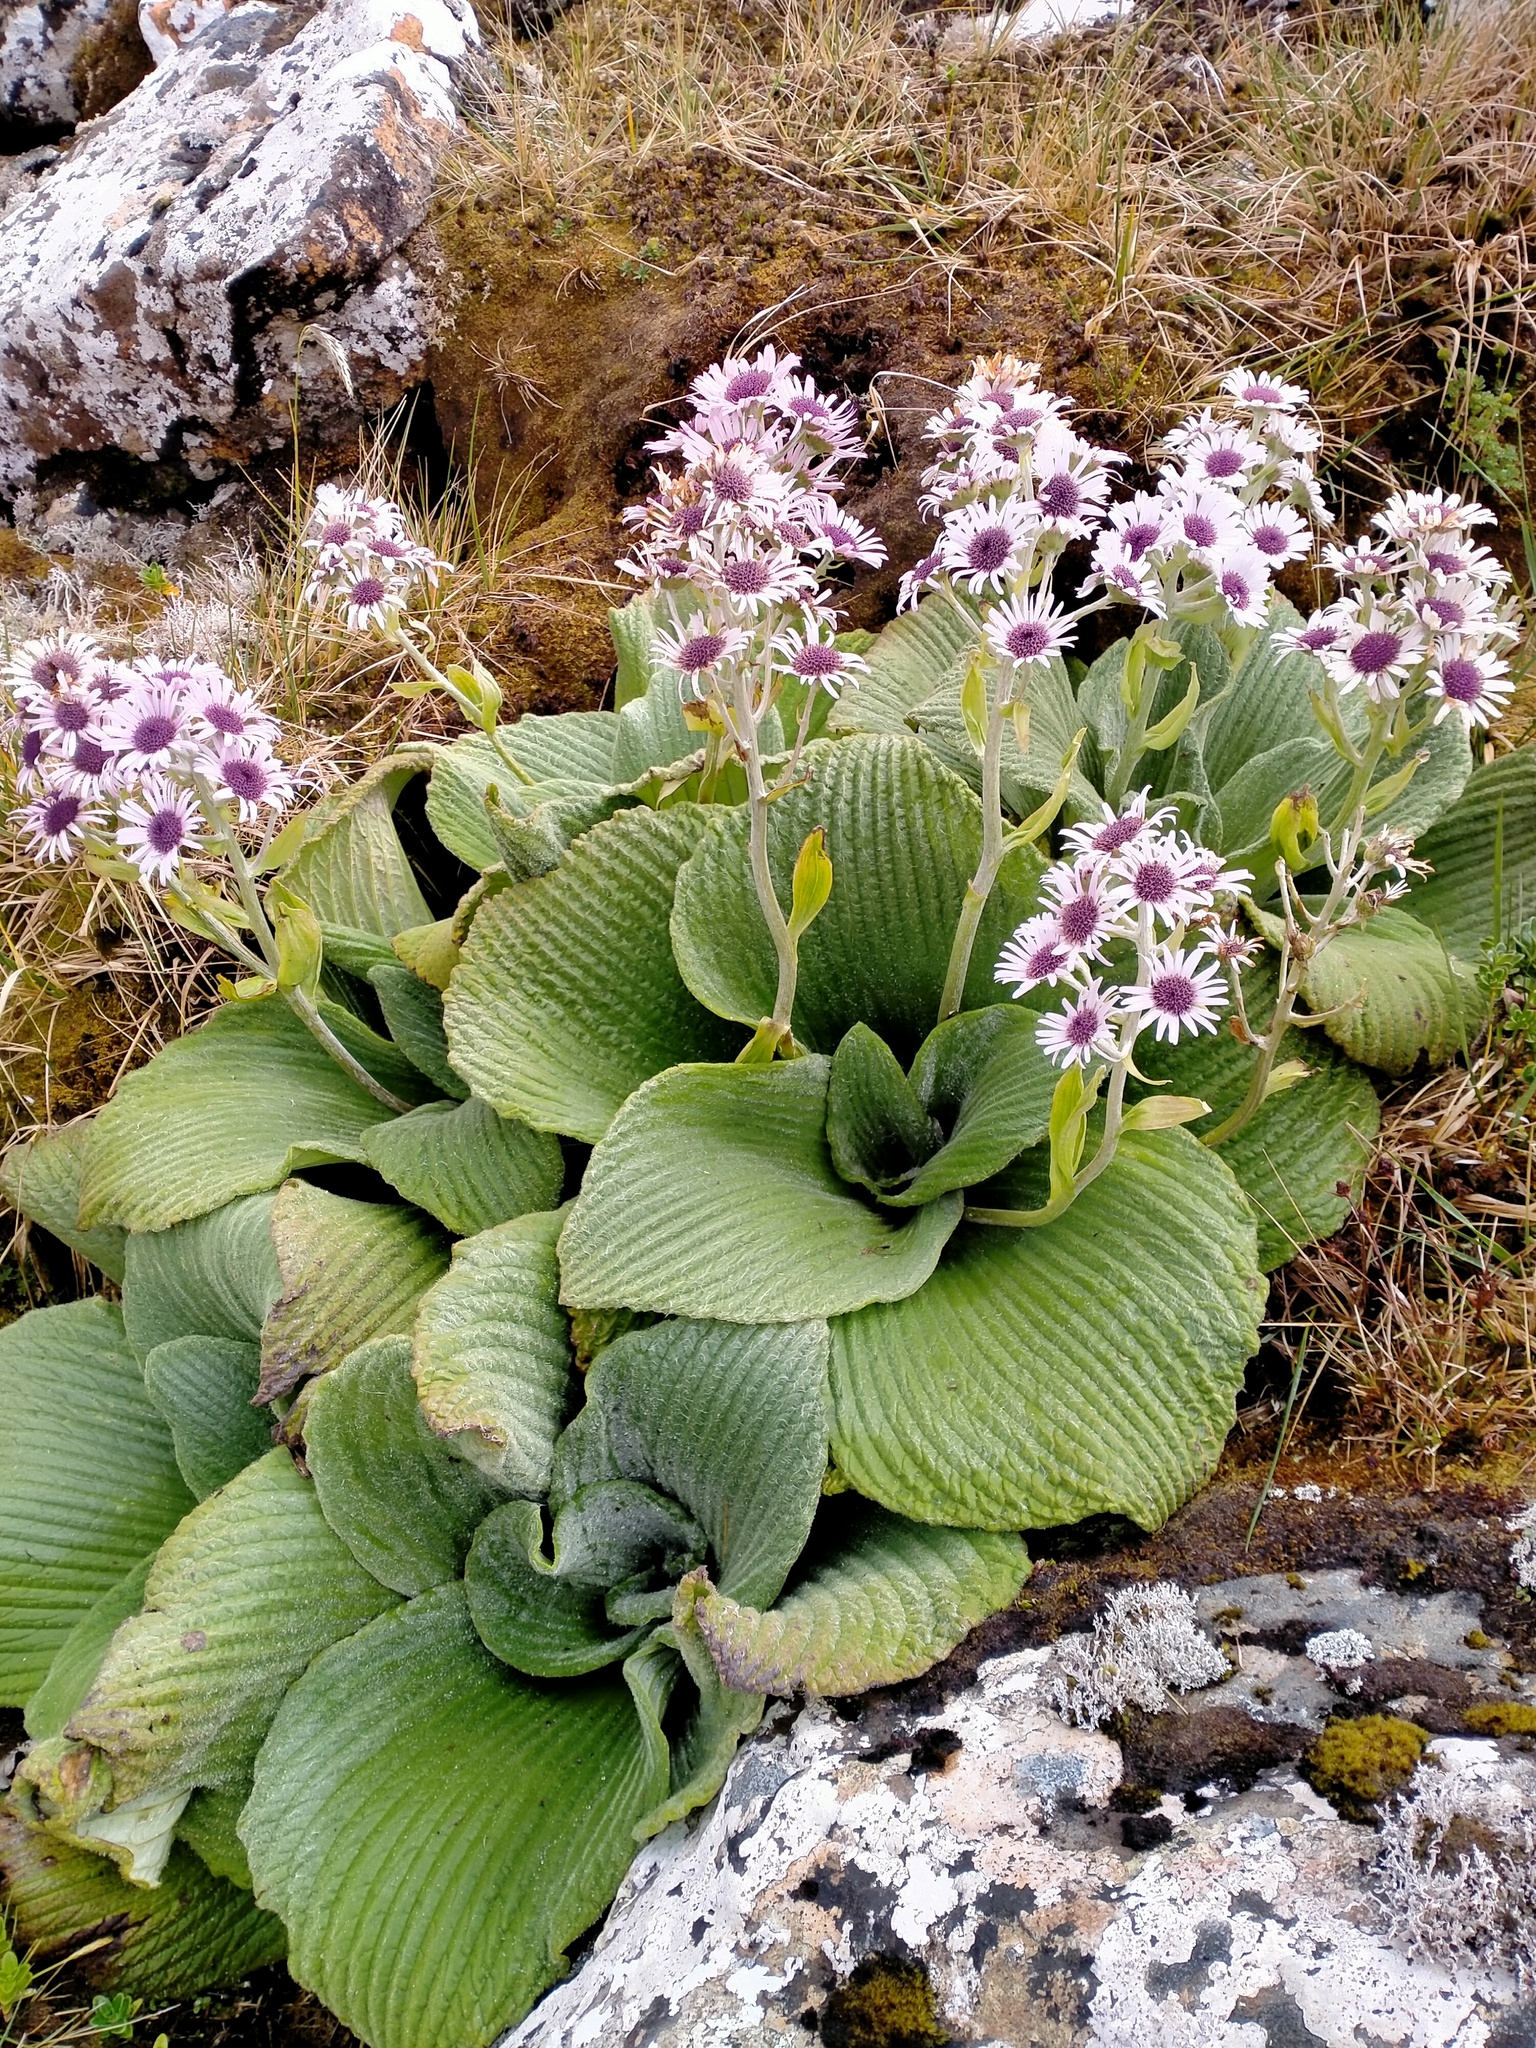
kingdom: Plantae
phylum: Tracheophyta
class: Magnoliopsida
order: Asterales
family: Asteraceae
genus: Pleurophyllum
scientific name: Pleurophyllum speciosum
